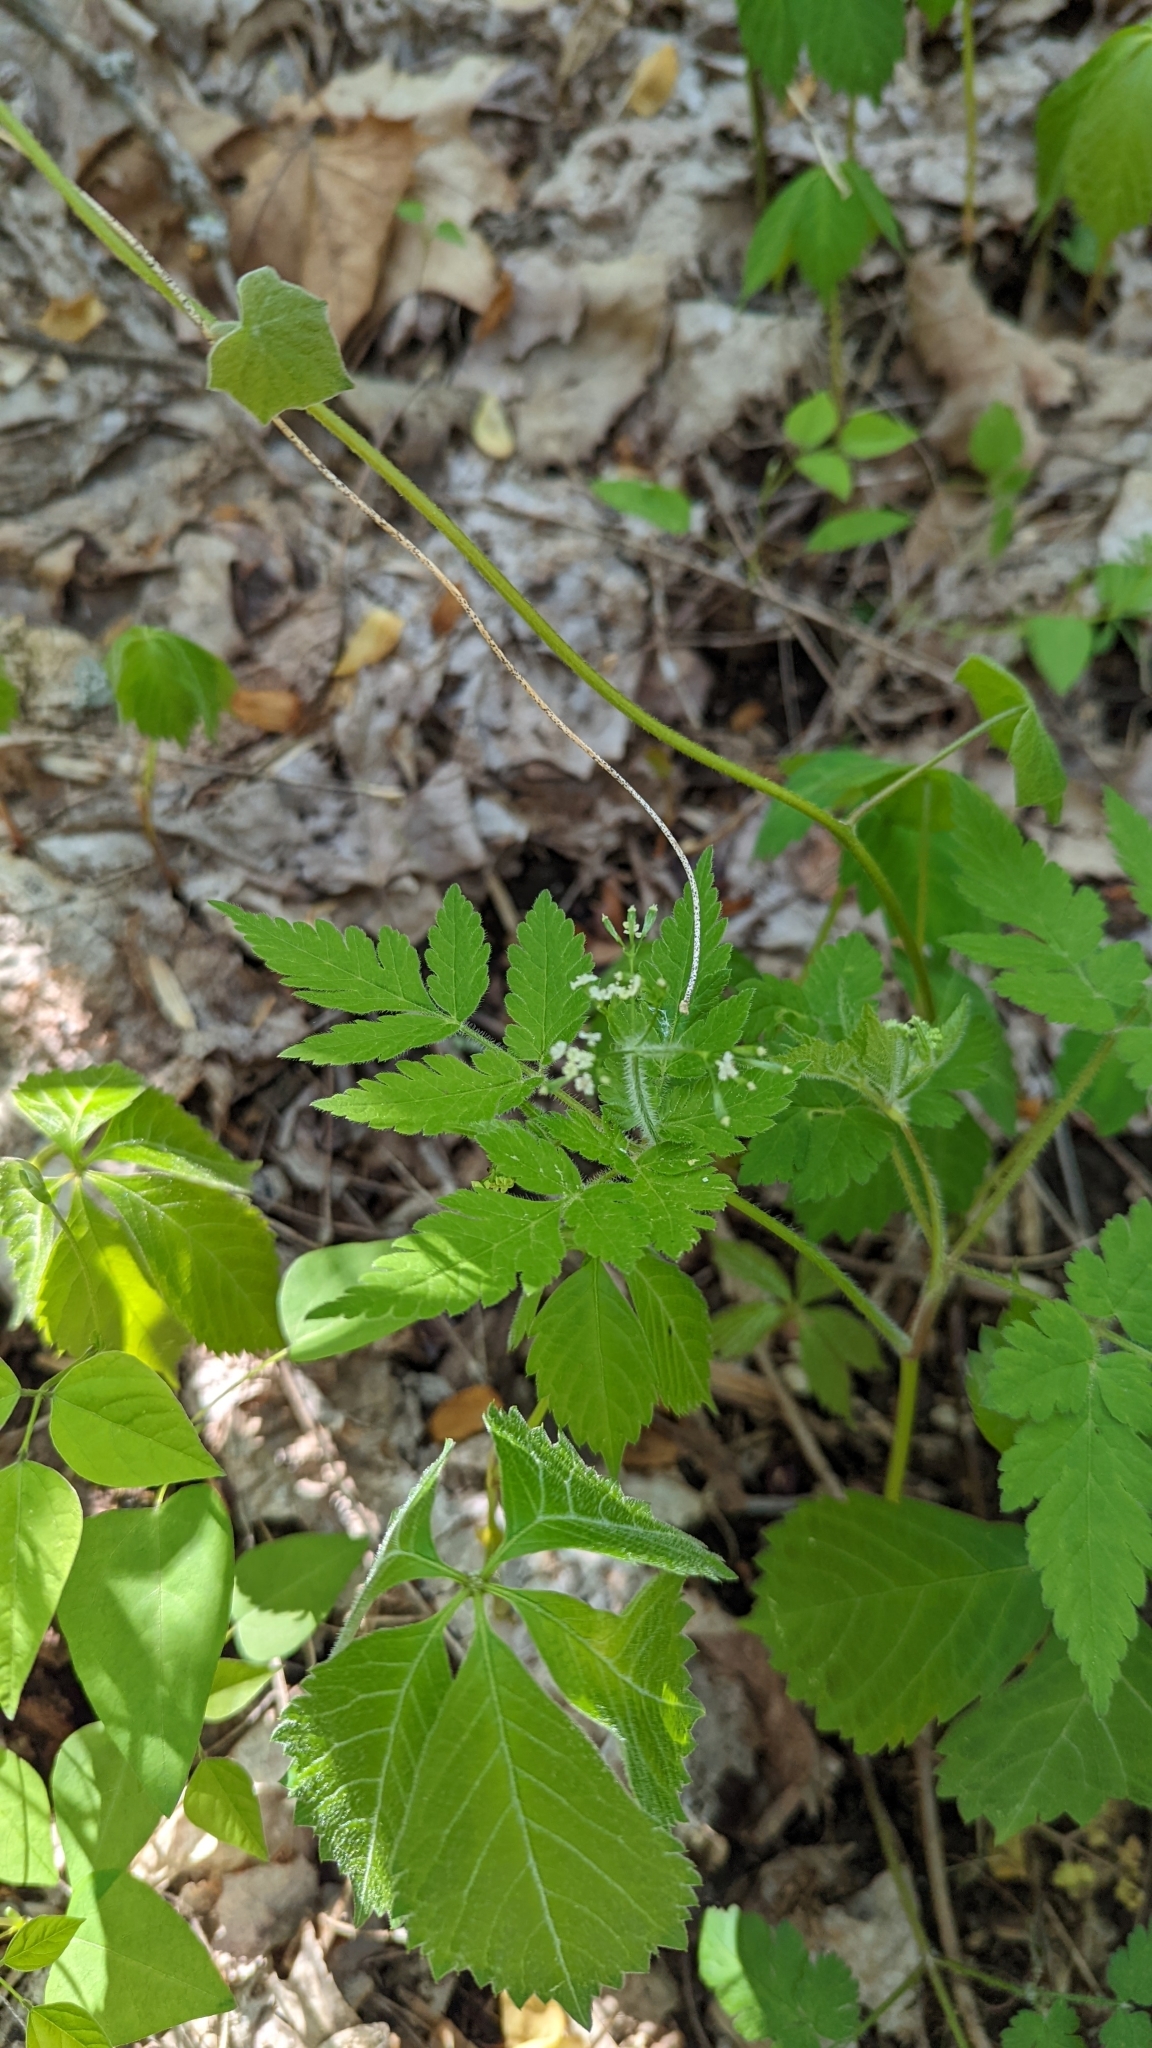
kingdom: Plantae
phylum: Tracheophyta
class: Magnoliopsida
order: Apiales
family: Apiaceae
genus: Osmorhiza
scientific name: Osmorhiza claytonii
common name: Hairy sweet cicely
